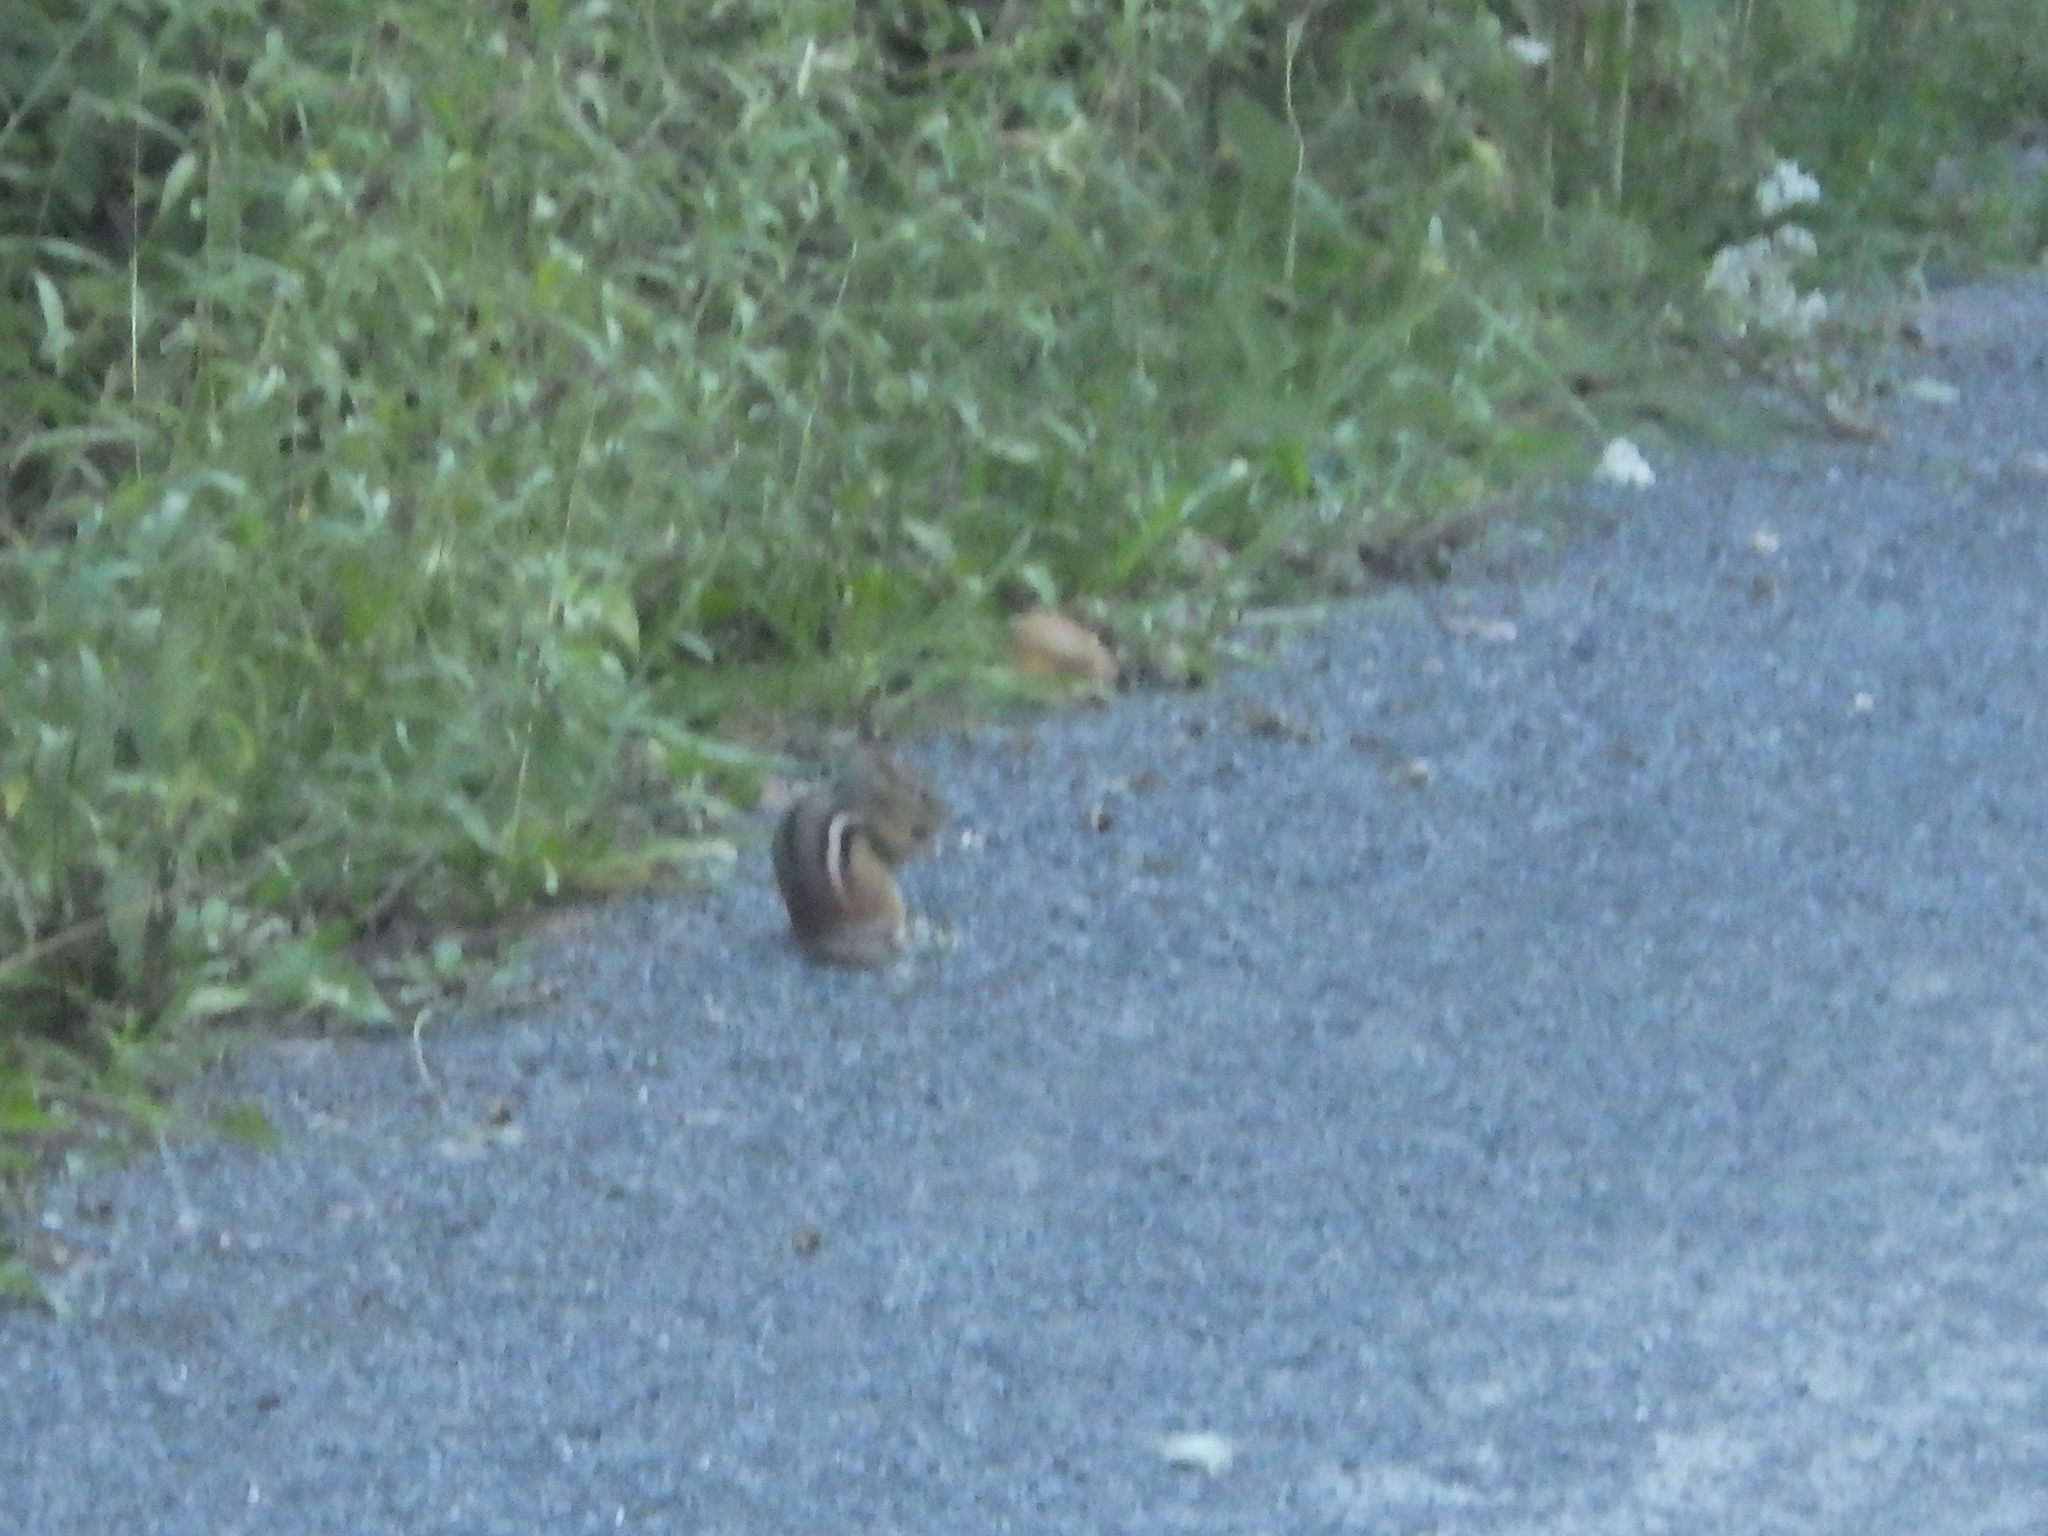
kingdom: Animalia
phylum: Chordata
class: Mammalia
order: Rodentia
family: Sciuridae
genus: Tamias
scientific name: Tamias striatus
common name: Eastern chipmunk
